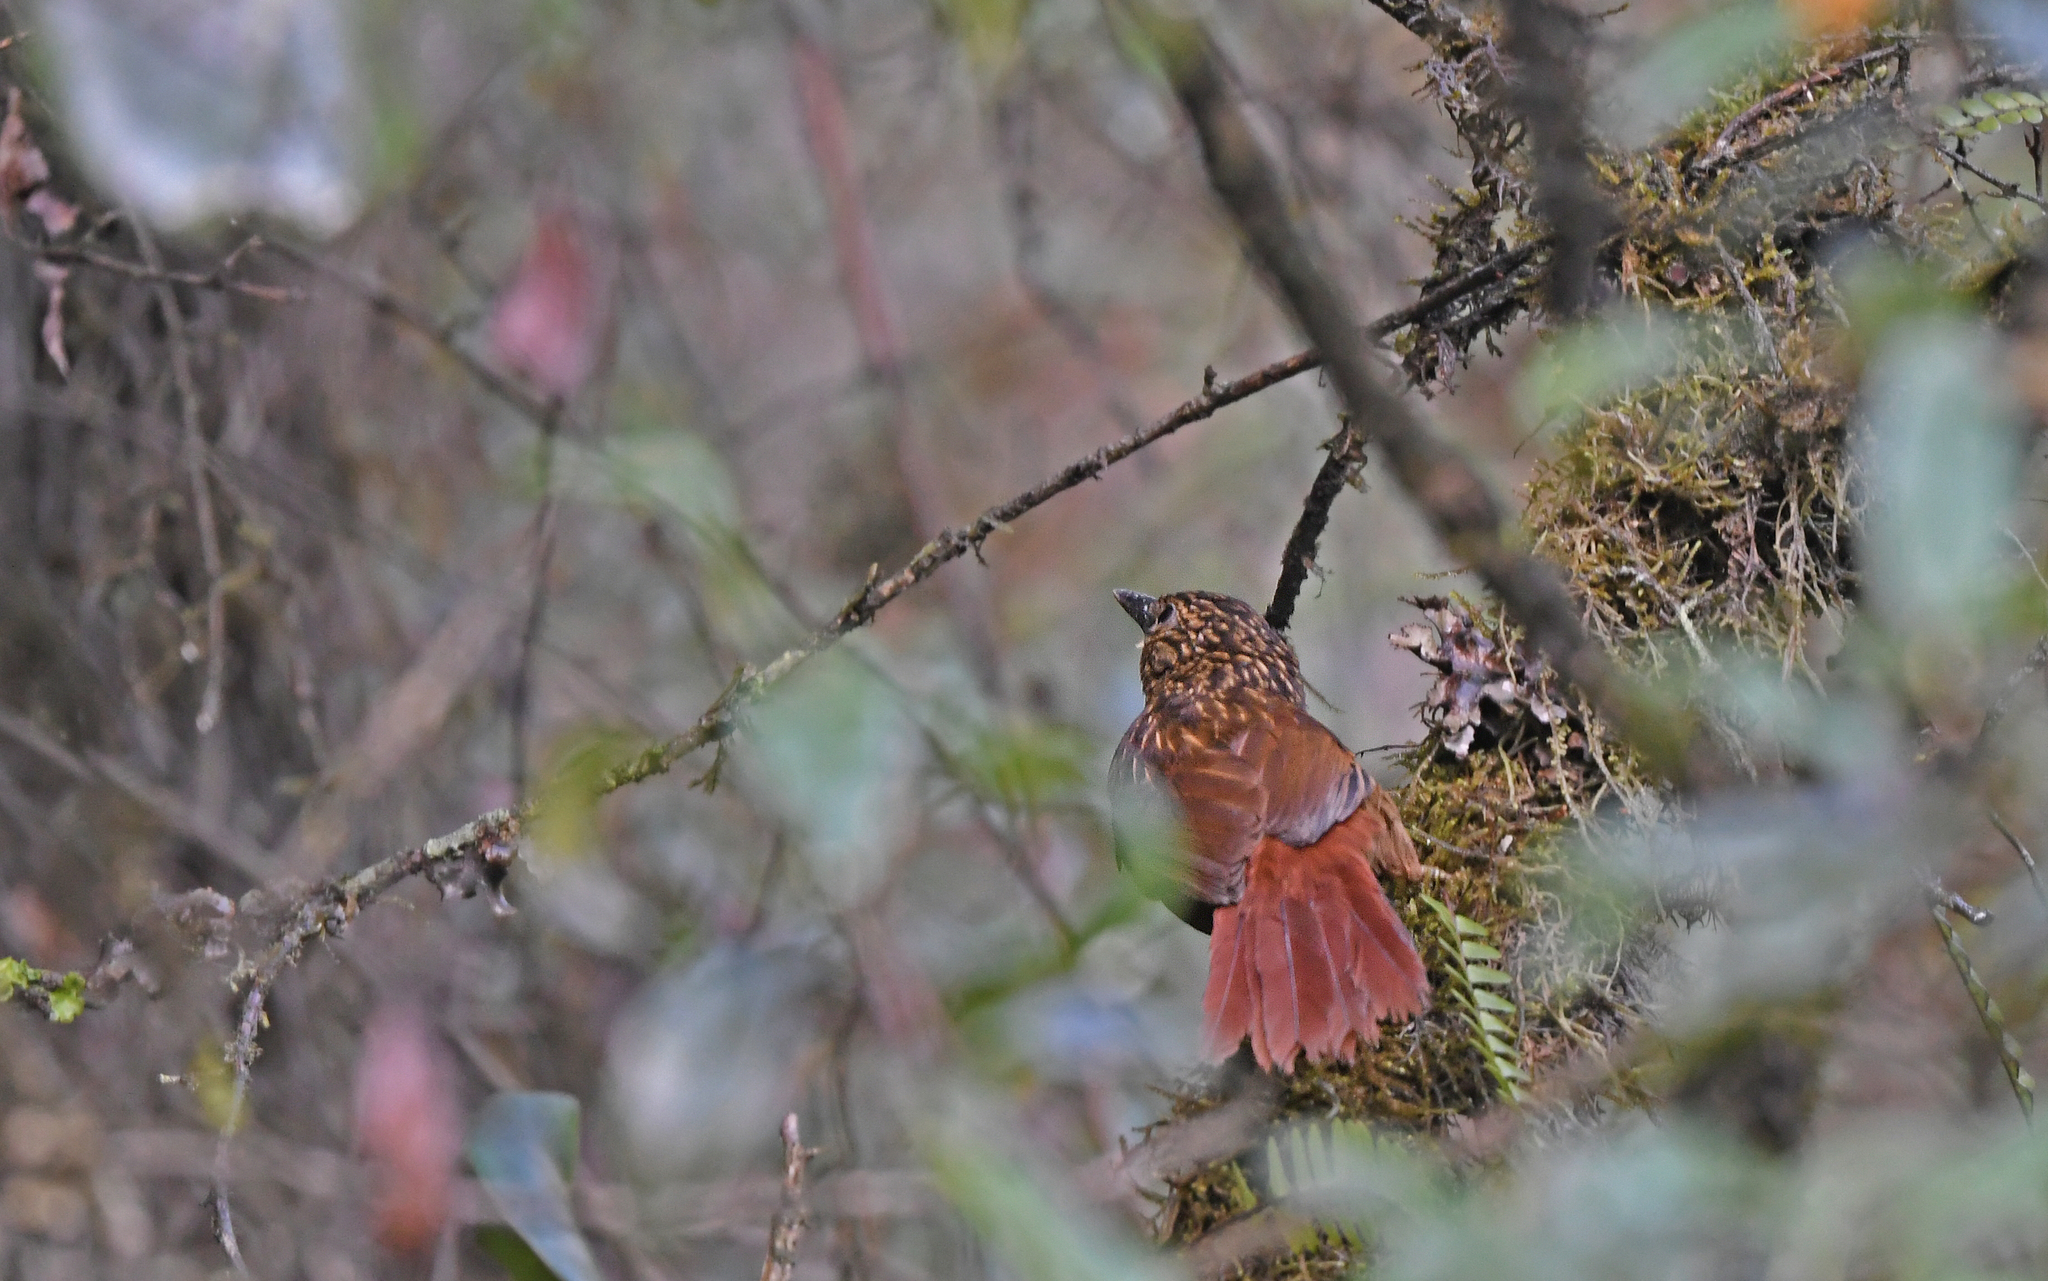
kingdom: Animalia
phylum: Chordata
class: Aves
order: Passeriformes
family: Furnariidae
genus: Thripadectes
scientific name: Thripadectes holostictus
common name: Striped treehunter
